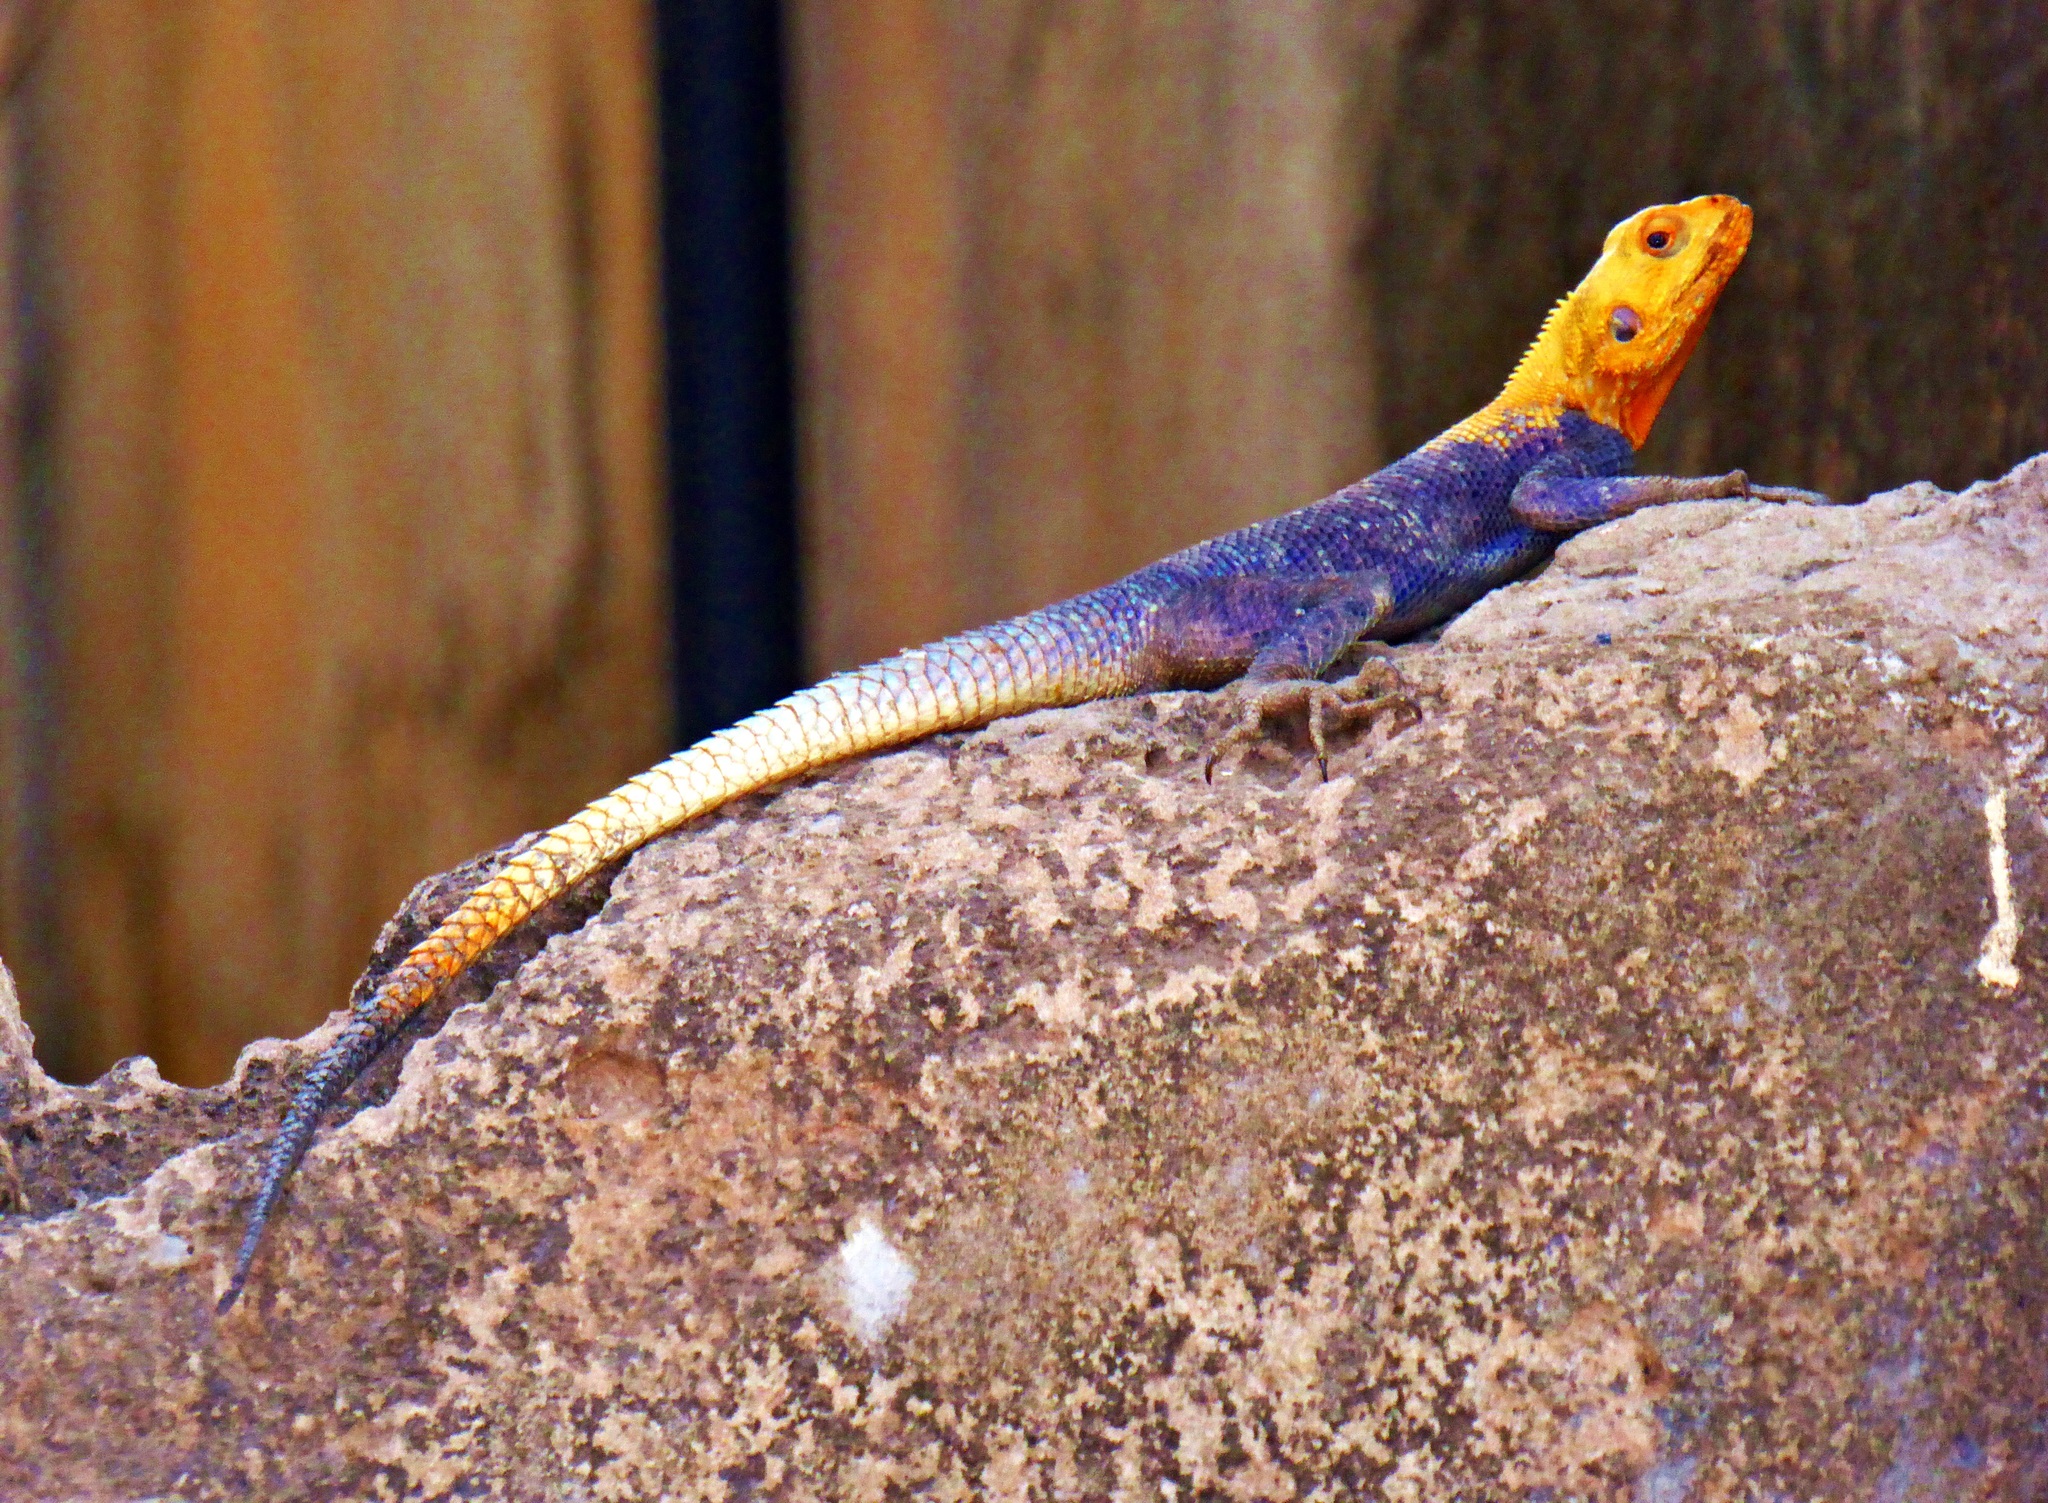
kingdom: Animalia
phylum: Chordata
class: Squamata
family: Agamidae
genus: Agama
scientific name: Agama agama
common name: Common agama
